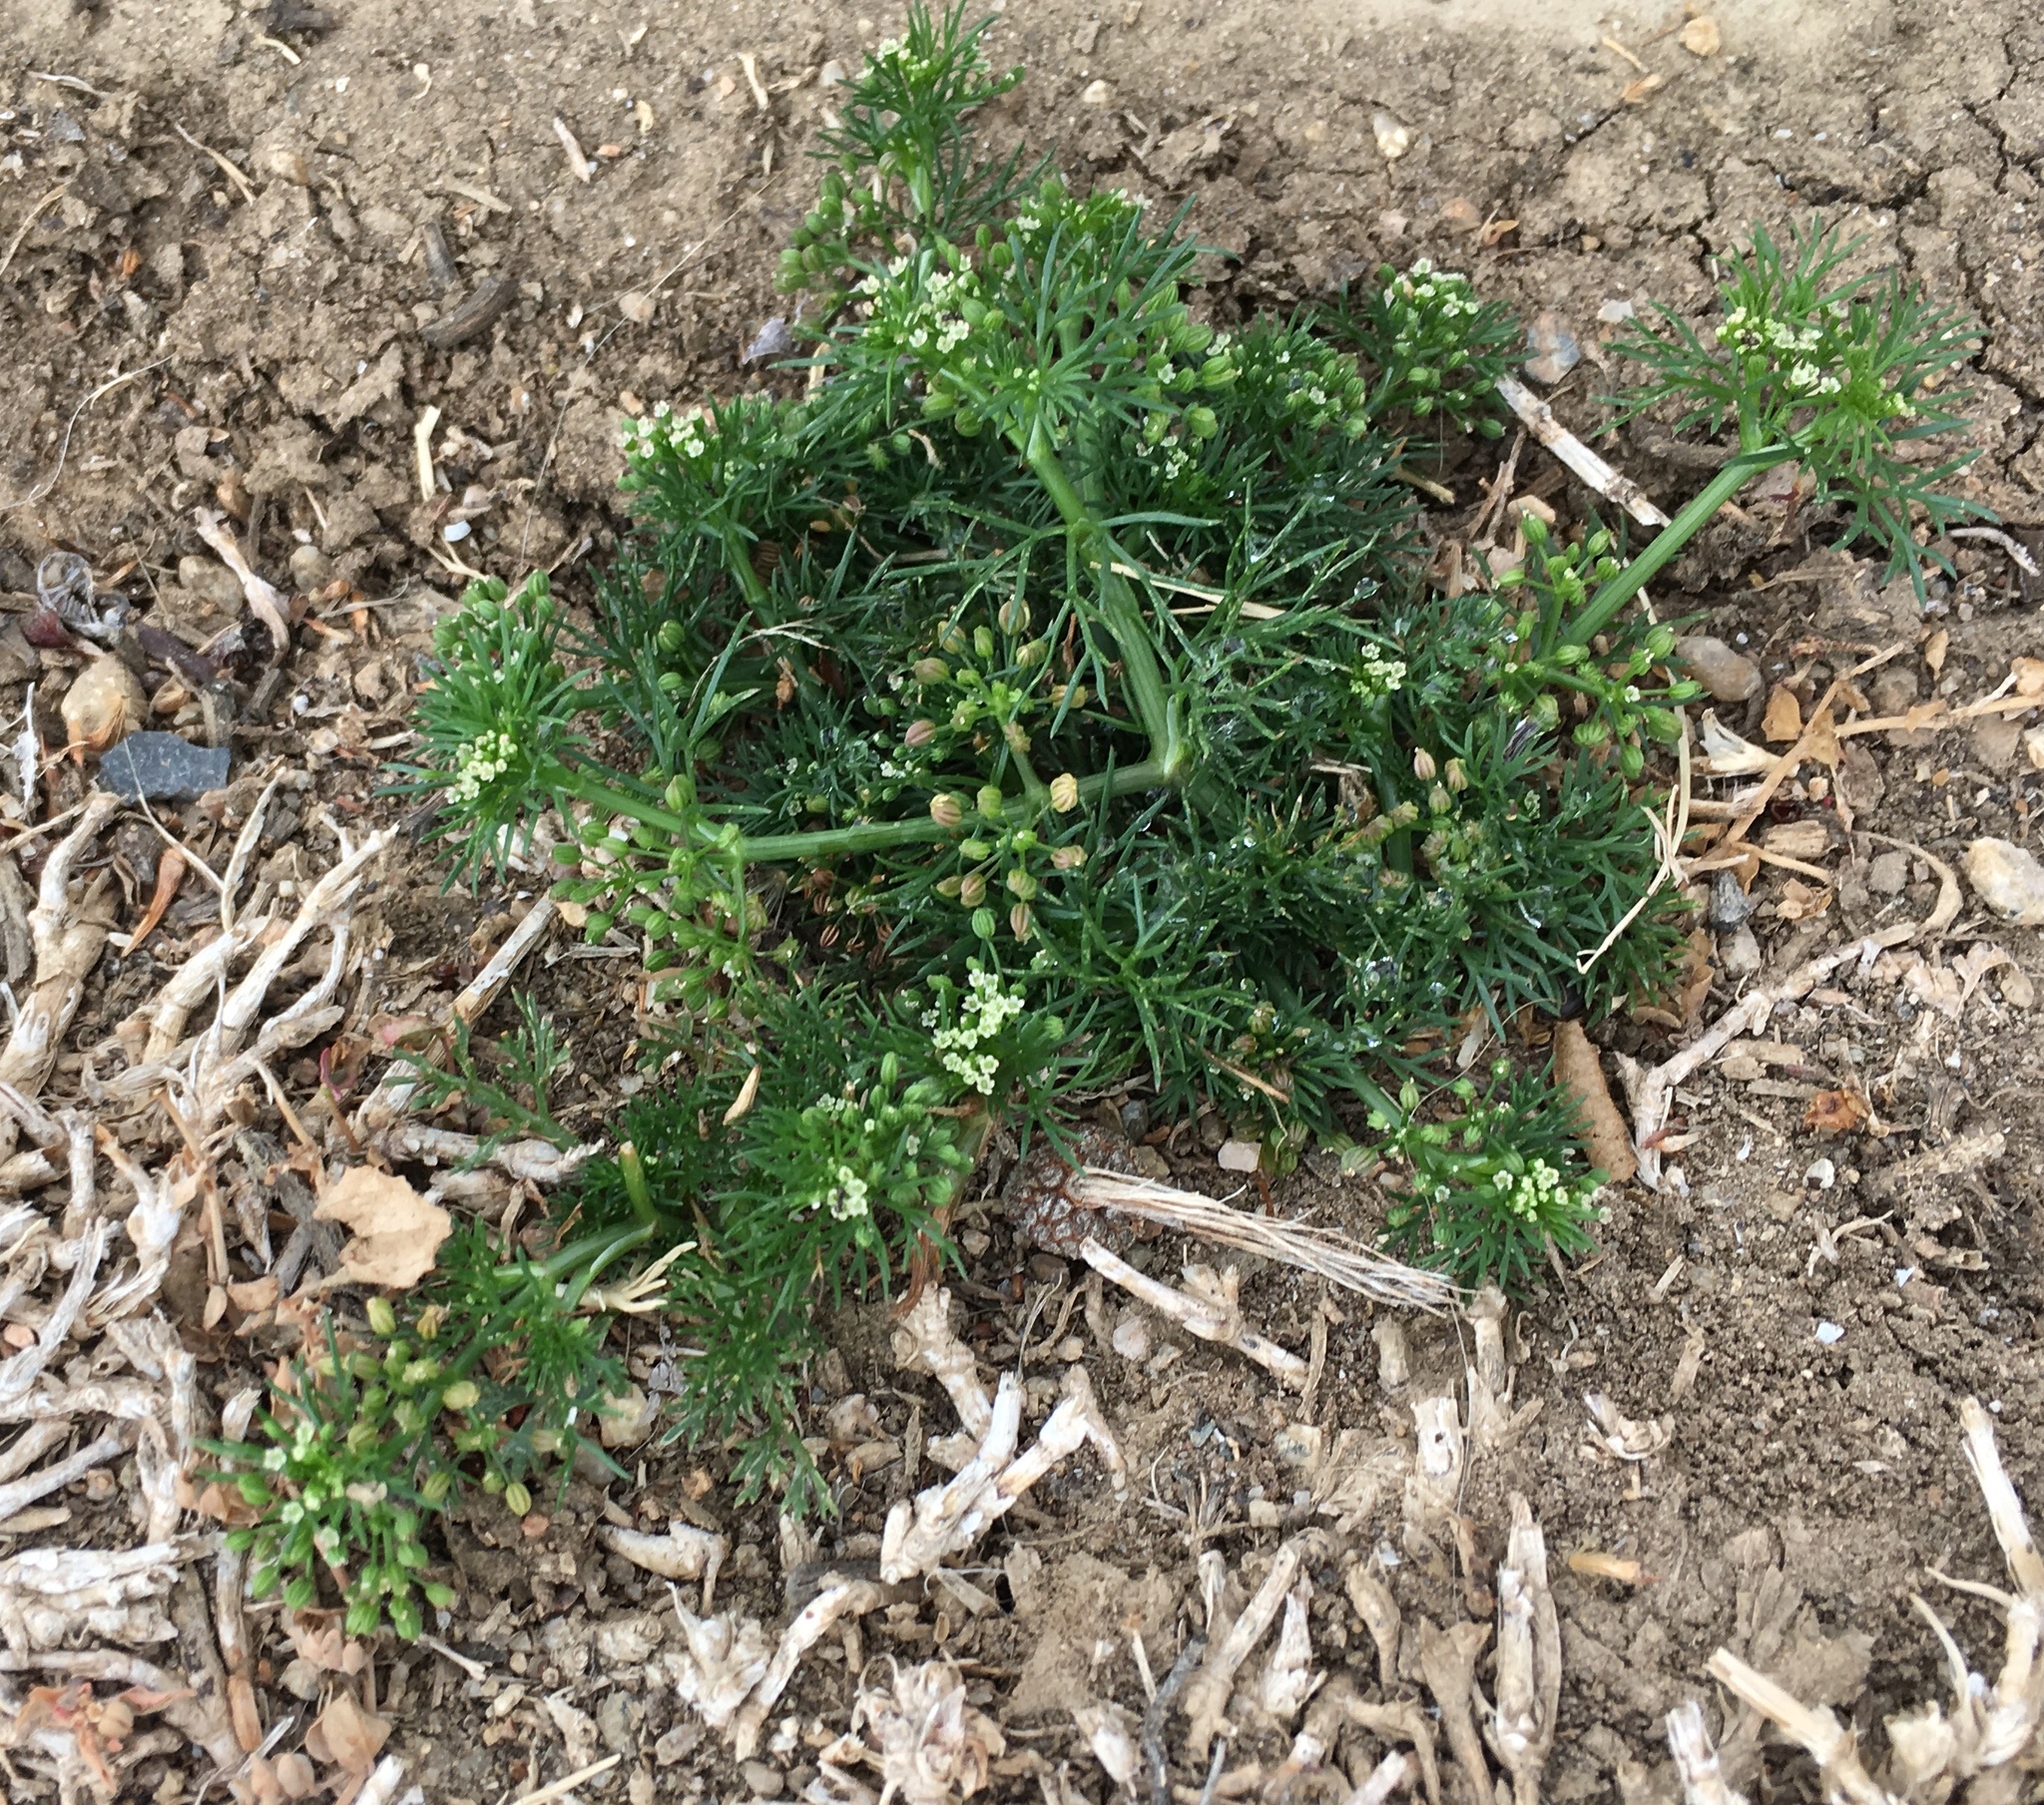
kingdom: Plantae
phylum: Tracheophyta
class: Magnoliopsida
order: Apiales
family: Apiaceae
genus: Cyclospermum
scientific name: Cyclospermum leptophyllum
